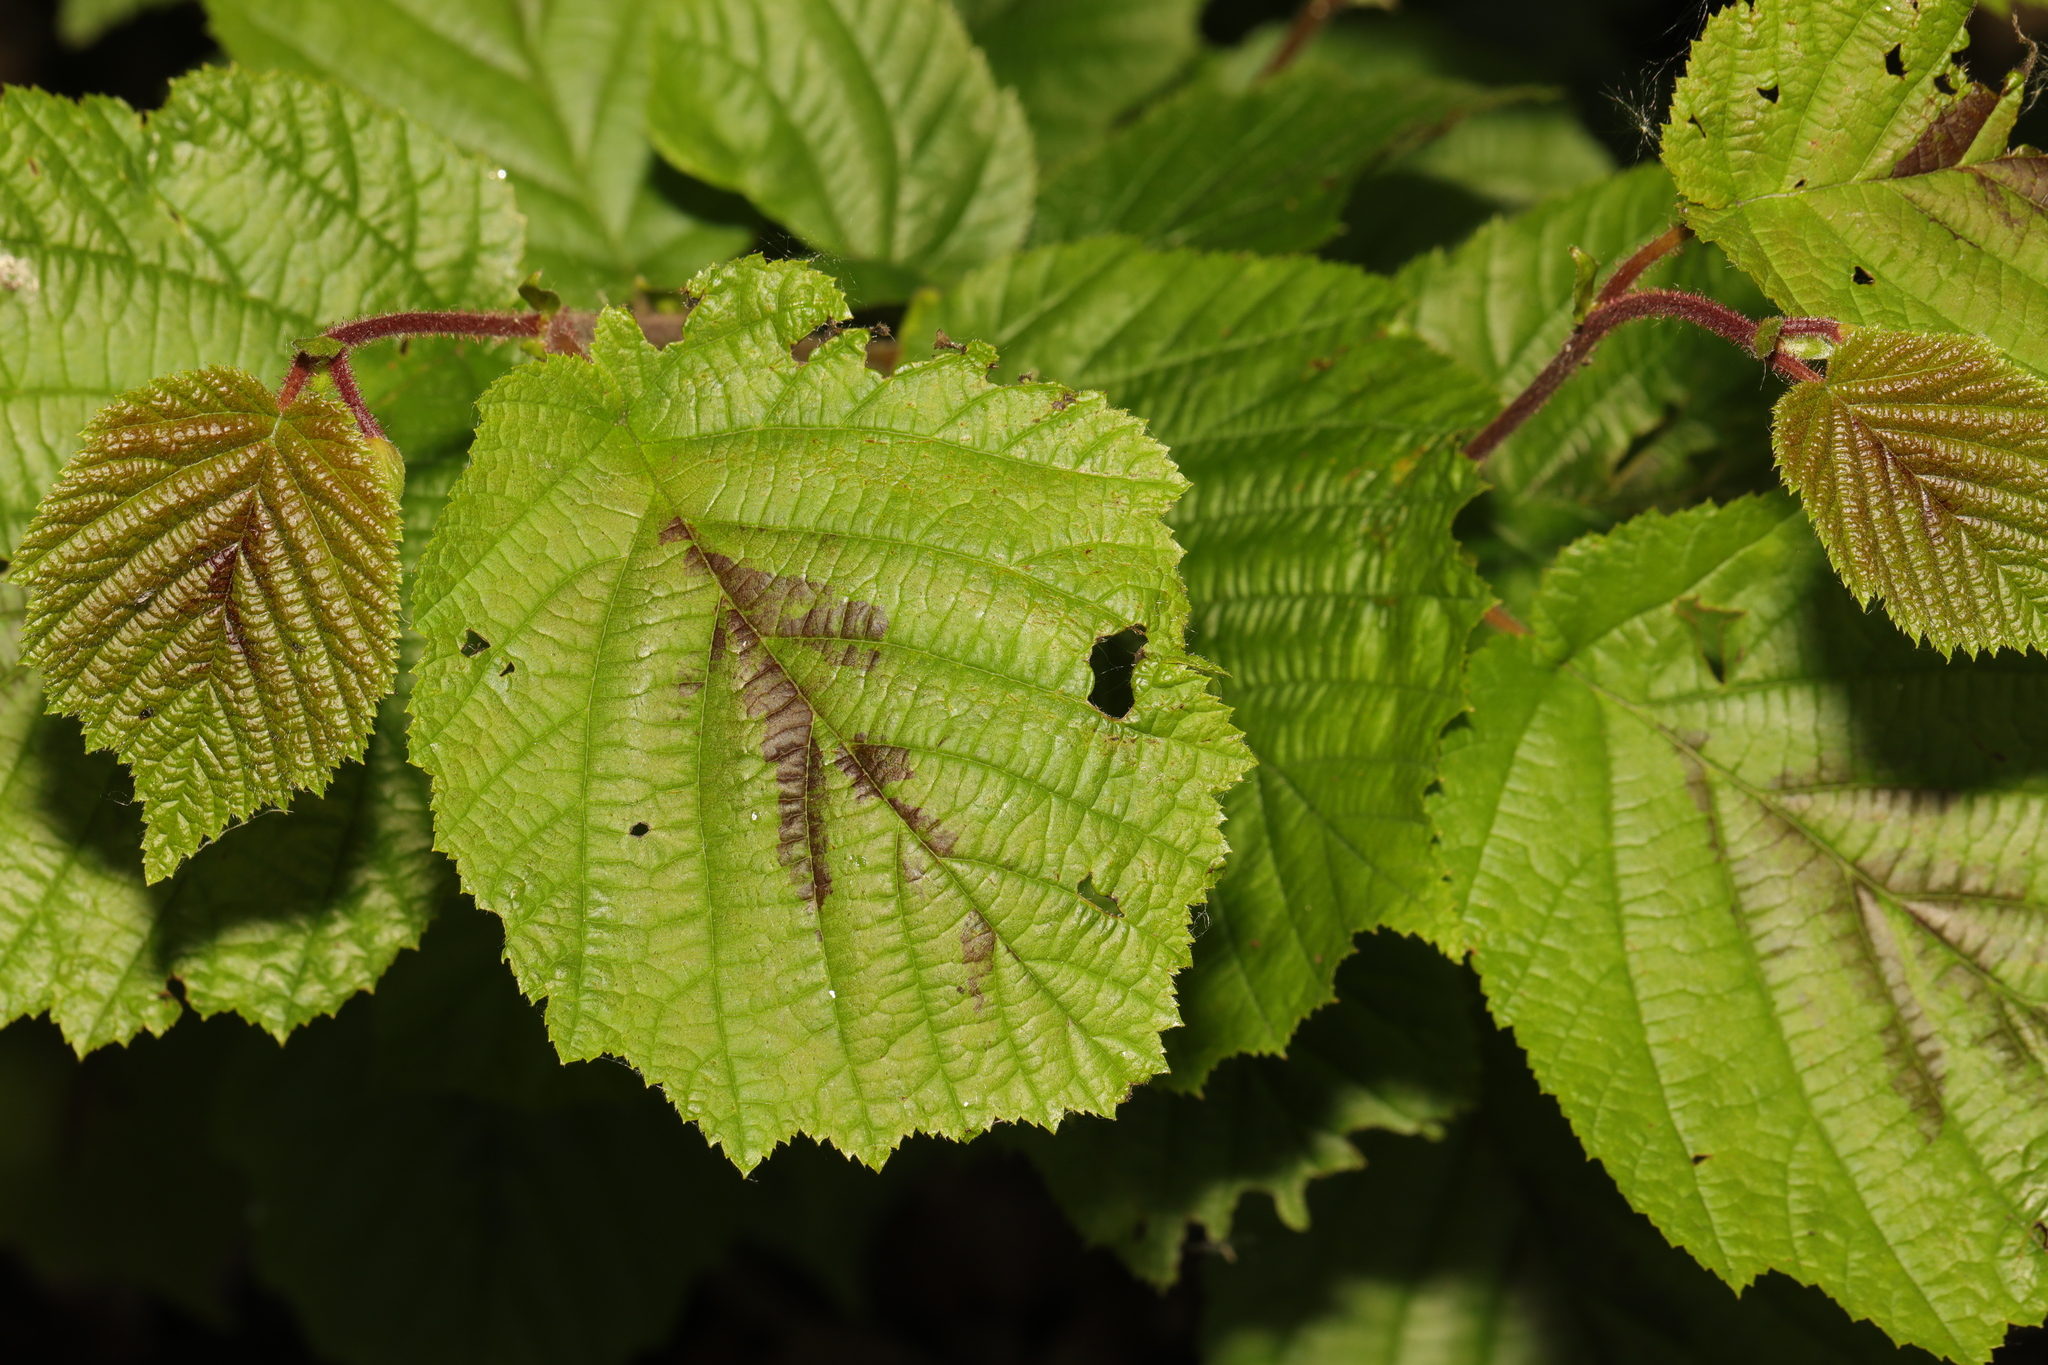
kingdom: Plantae
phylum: Tracheophyta
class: Magnoliopsida
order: Fagales
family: Betulaceae
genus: Corylus
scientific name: Corylus avellana
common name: European hazel
